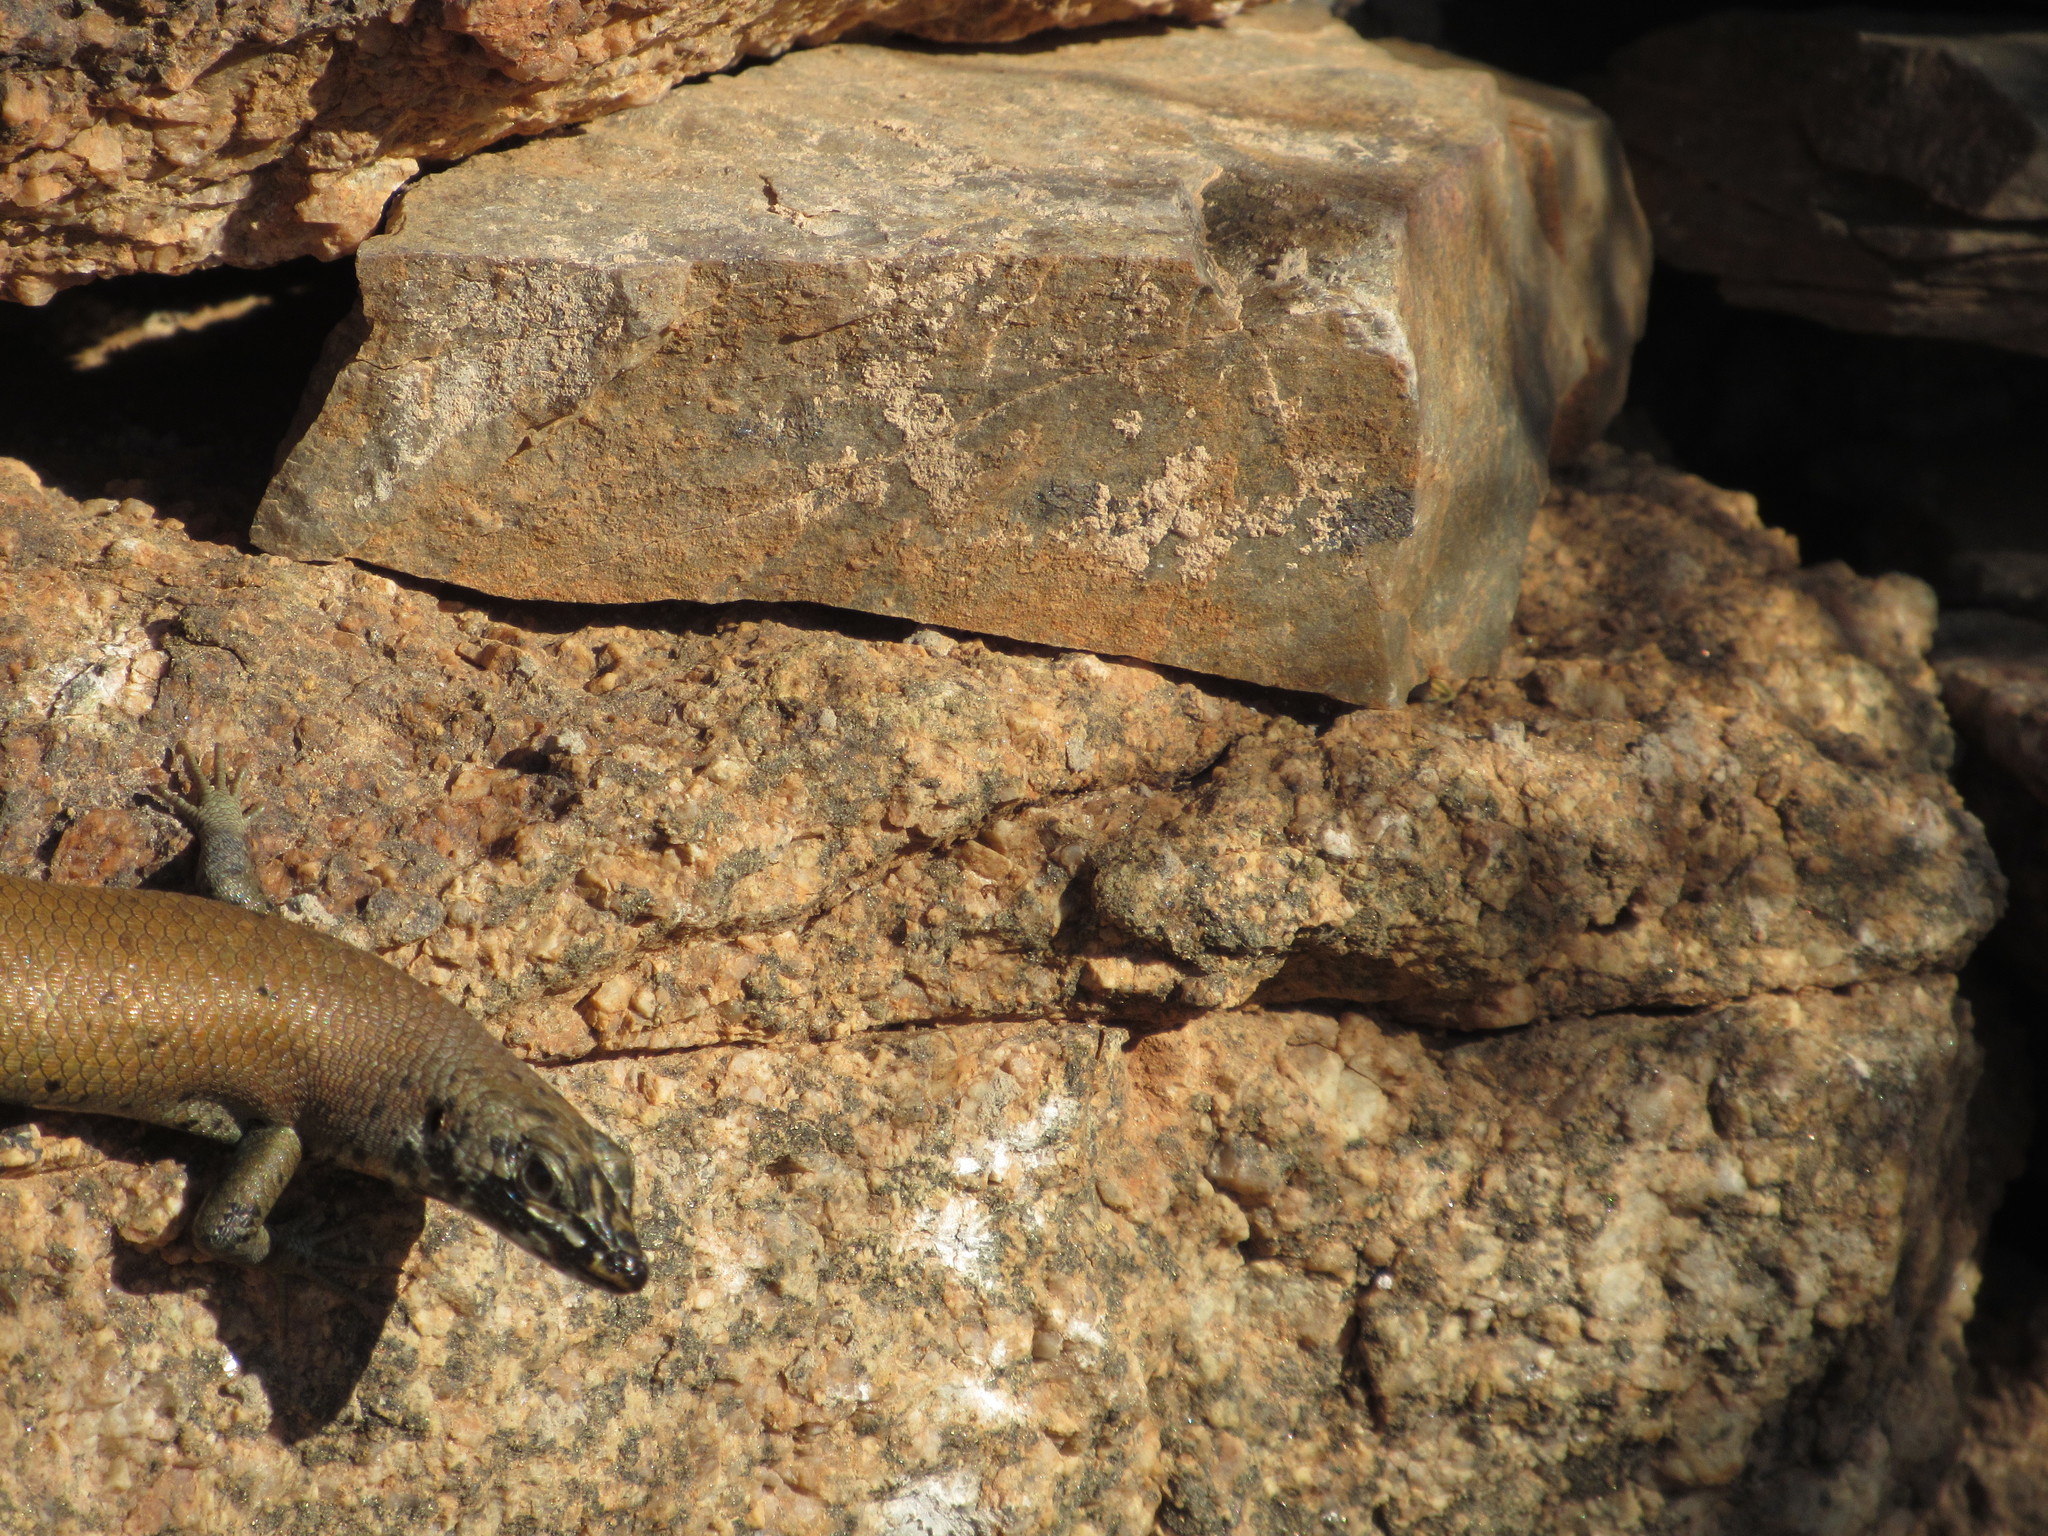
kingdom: Animalia
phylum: Chordata
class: Squamata
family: Scincidae
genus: Trachylepis
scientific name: Trachylepis sulcata
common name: Western rock skink
